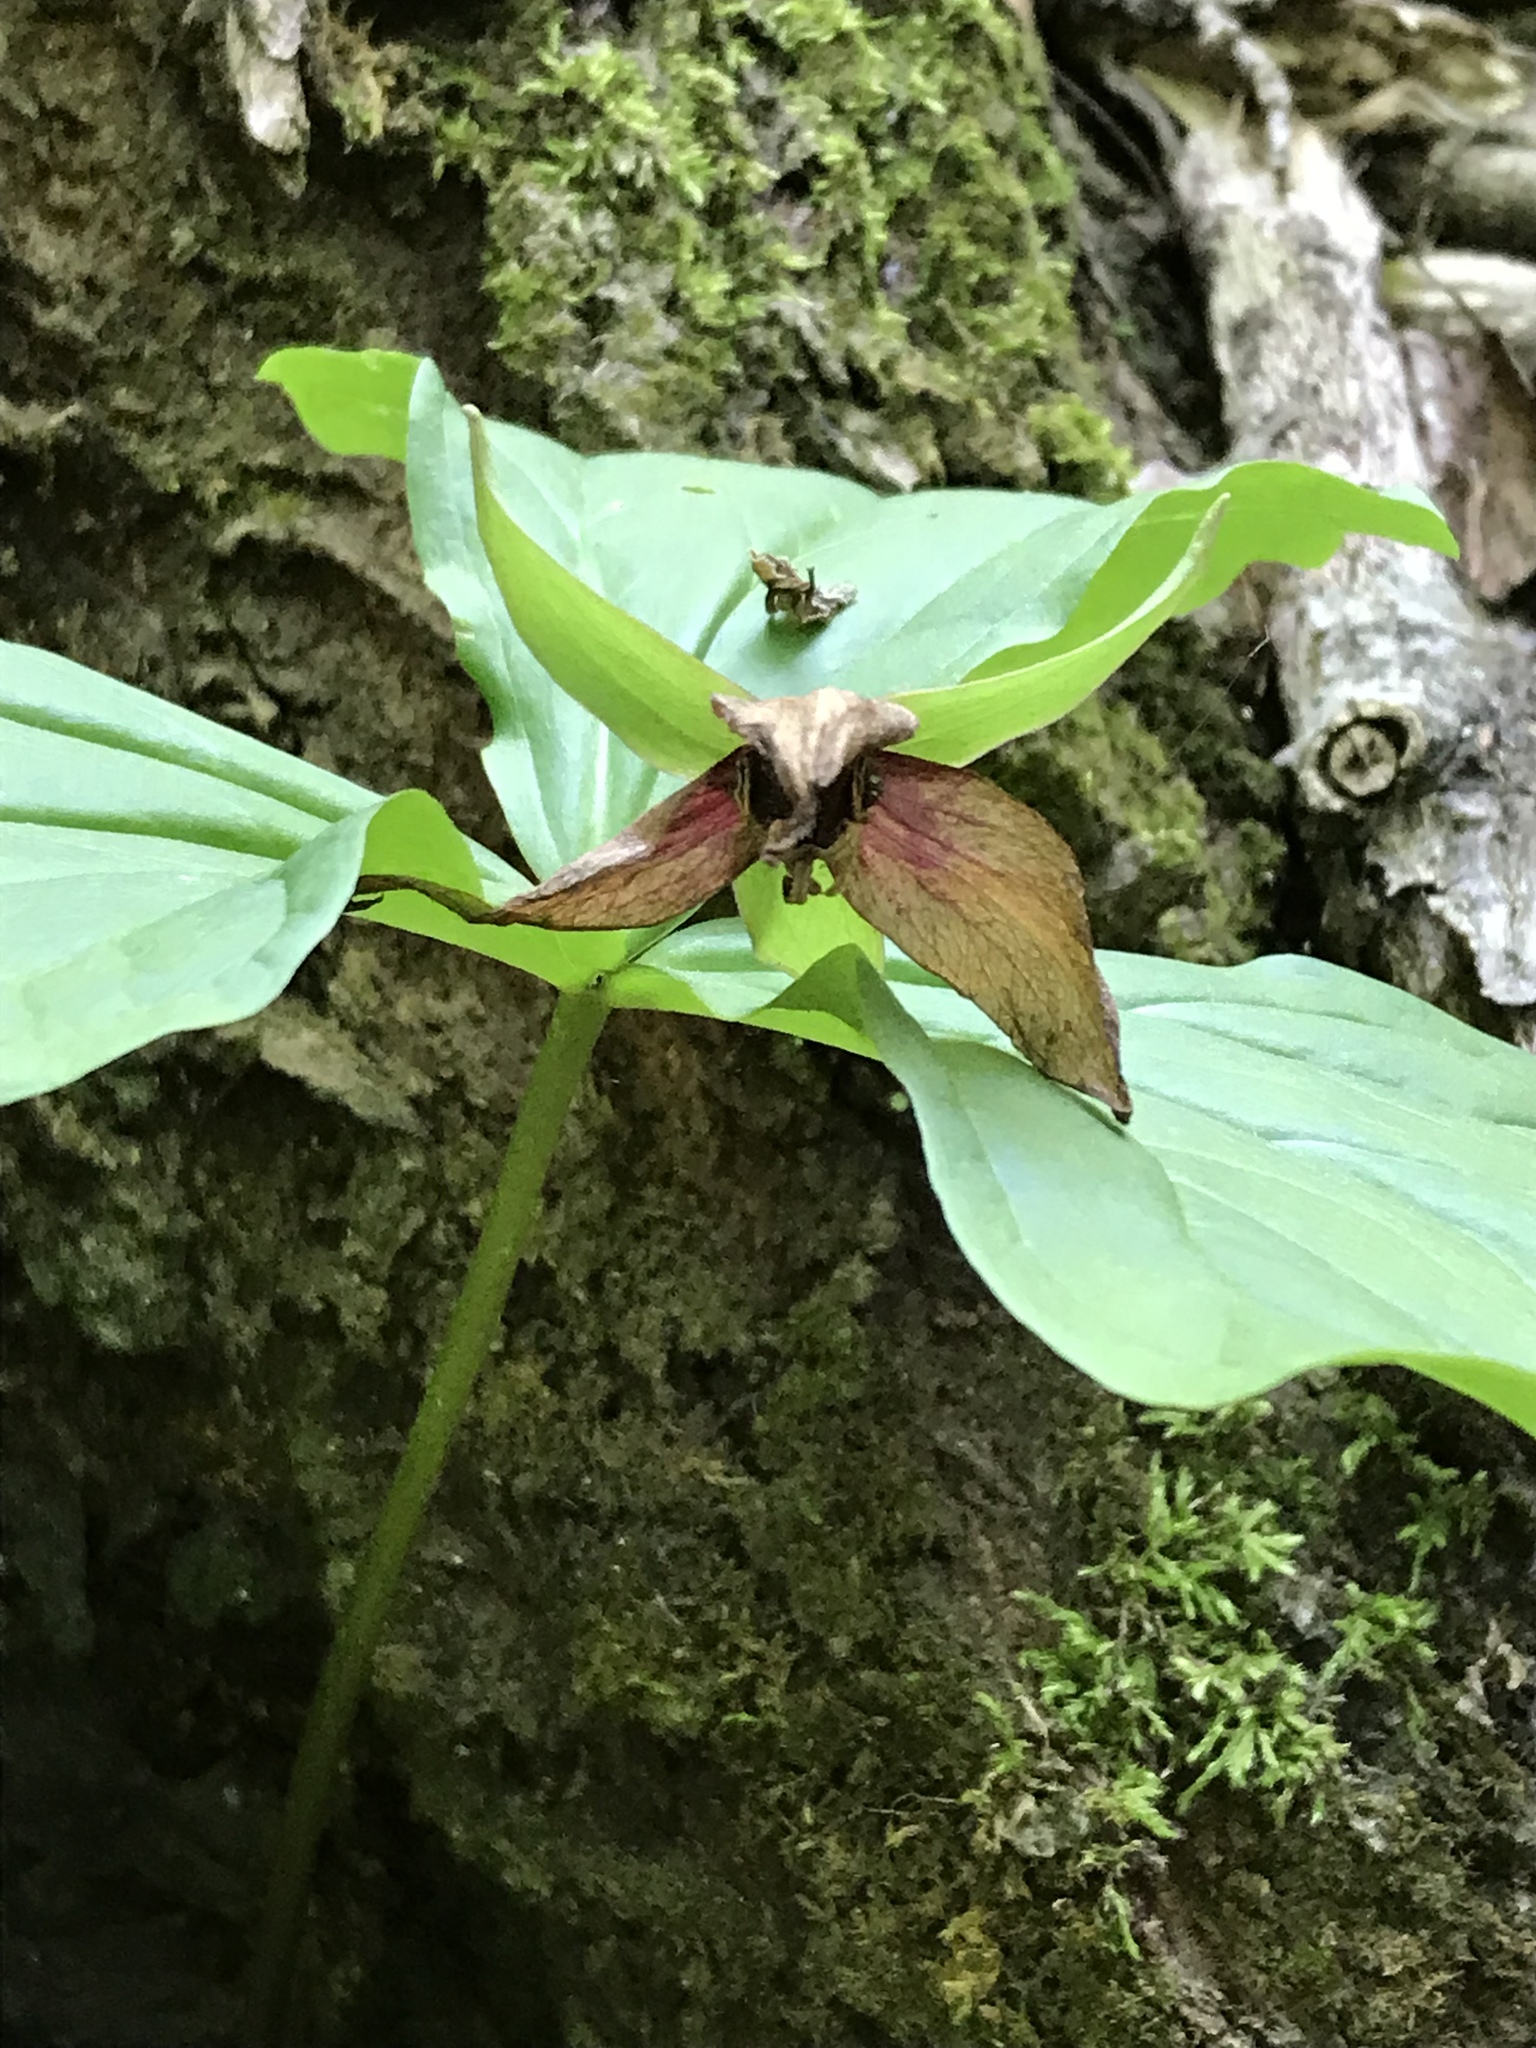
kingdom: Plantae
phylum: Tracheophyta
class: Liliopsida
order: Liliales
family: Melanthiaceae
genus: Trillium
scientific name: Trillium erectum
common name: Purple trillium
